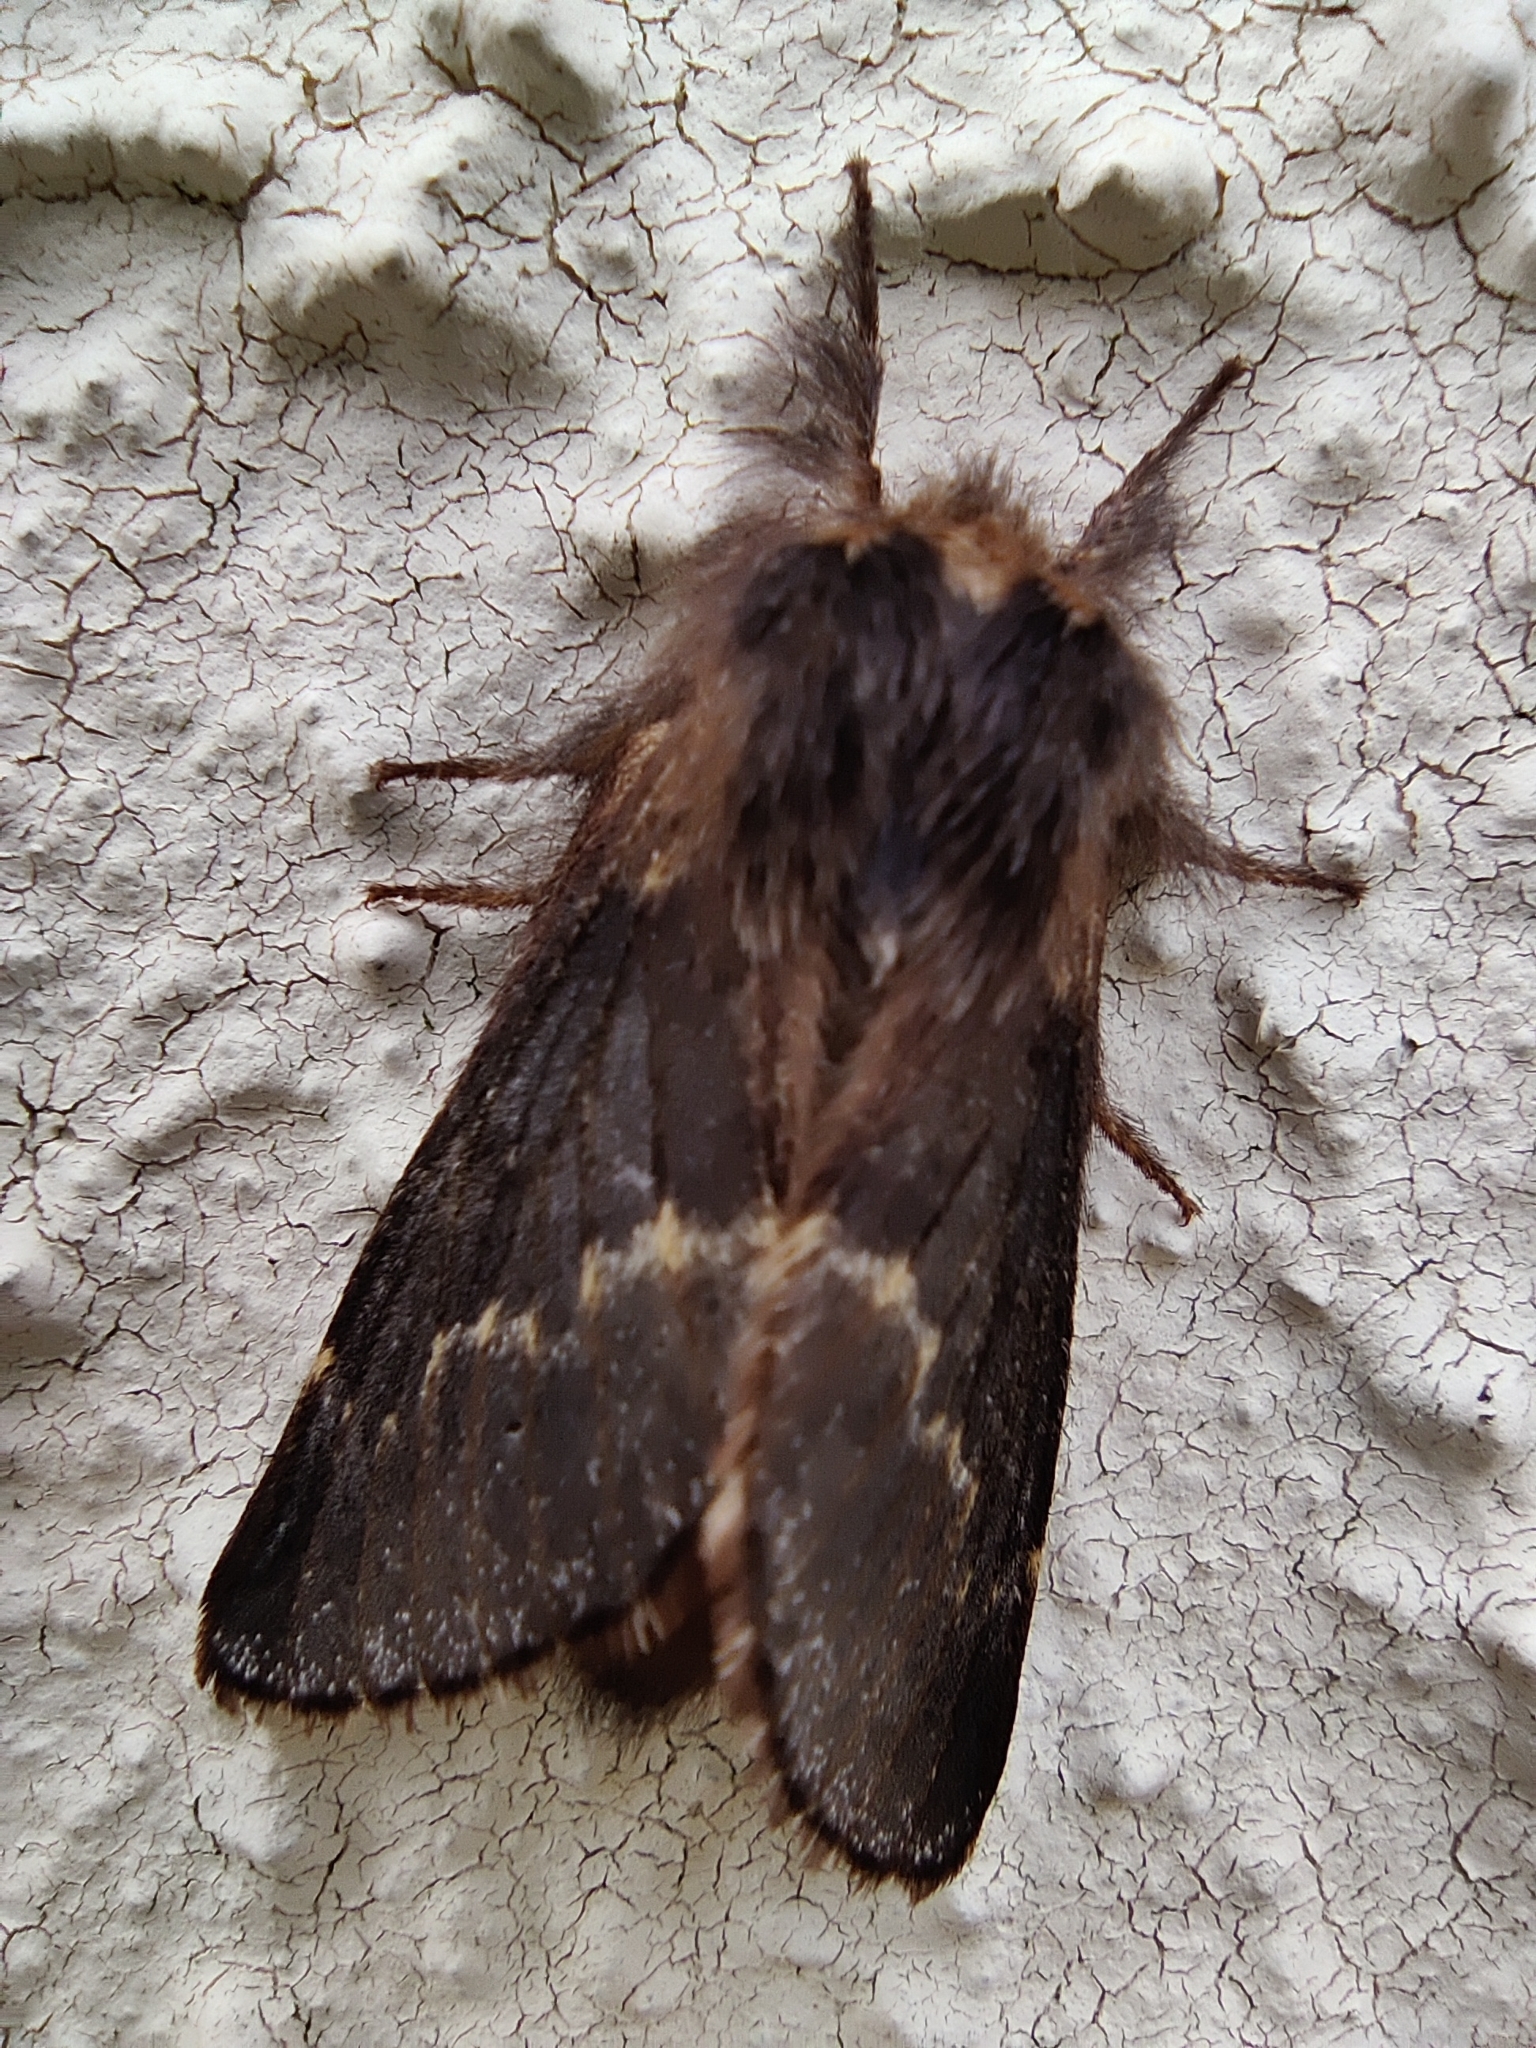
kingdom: Animalia
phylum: Arthropoda
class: Insecta
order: Lepidoptera
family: Lasiocampidae
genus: Poecilocampa
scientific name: Poecilocampa populi
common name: December moth
